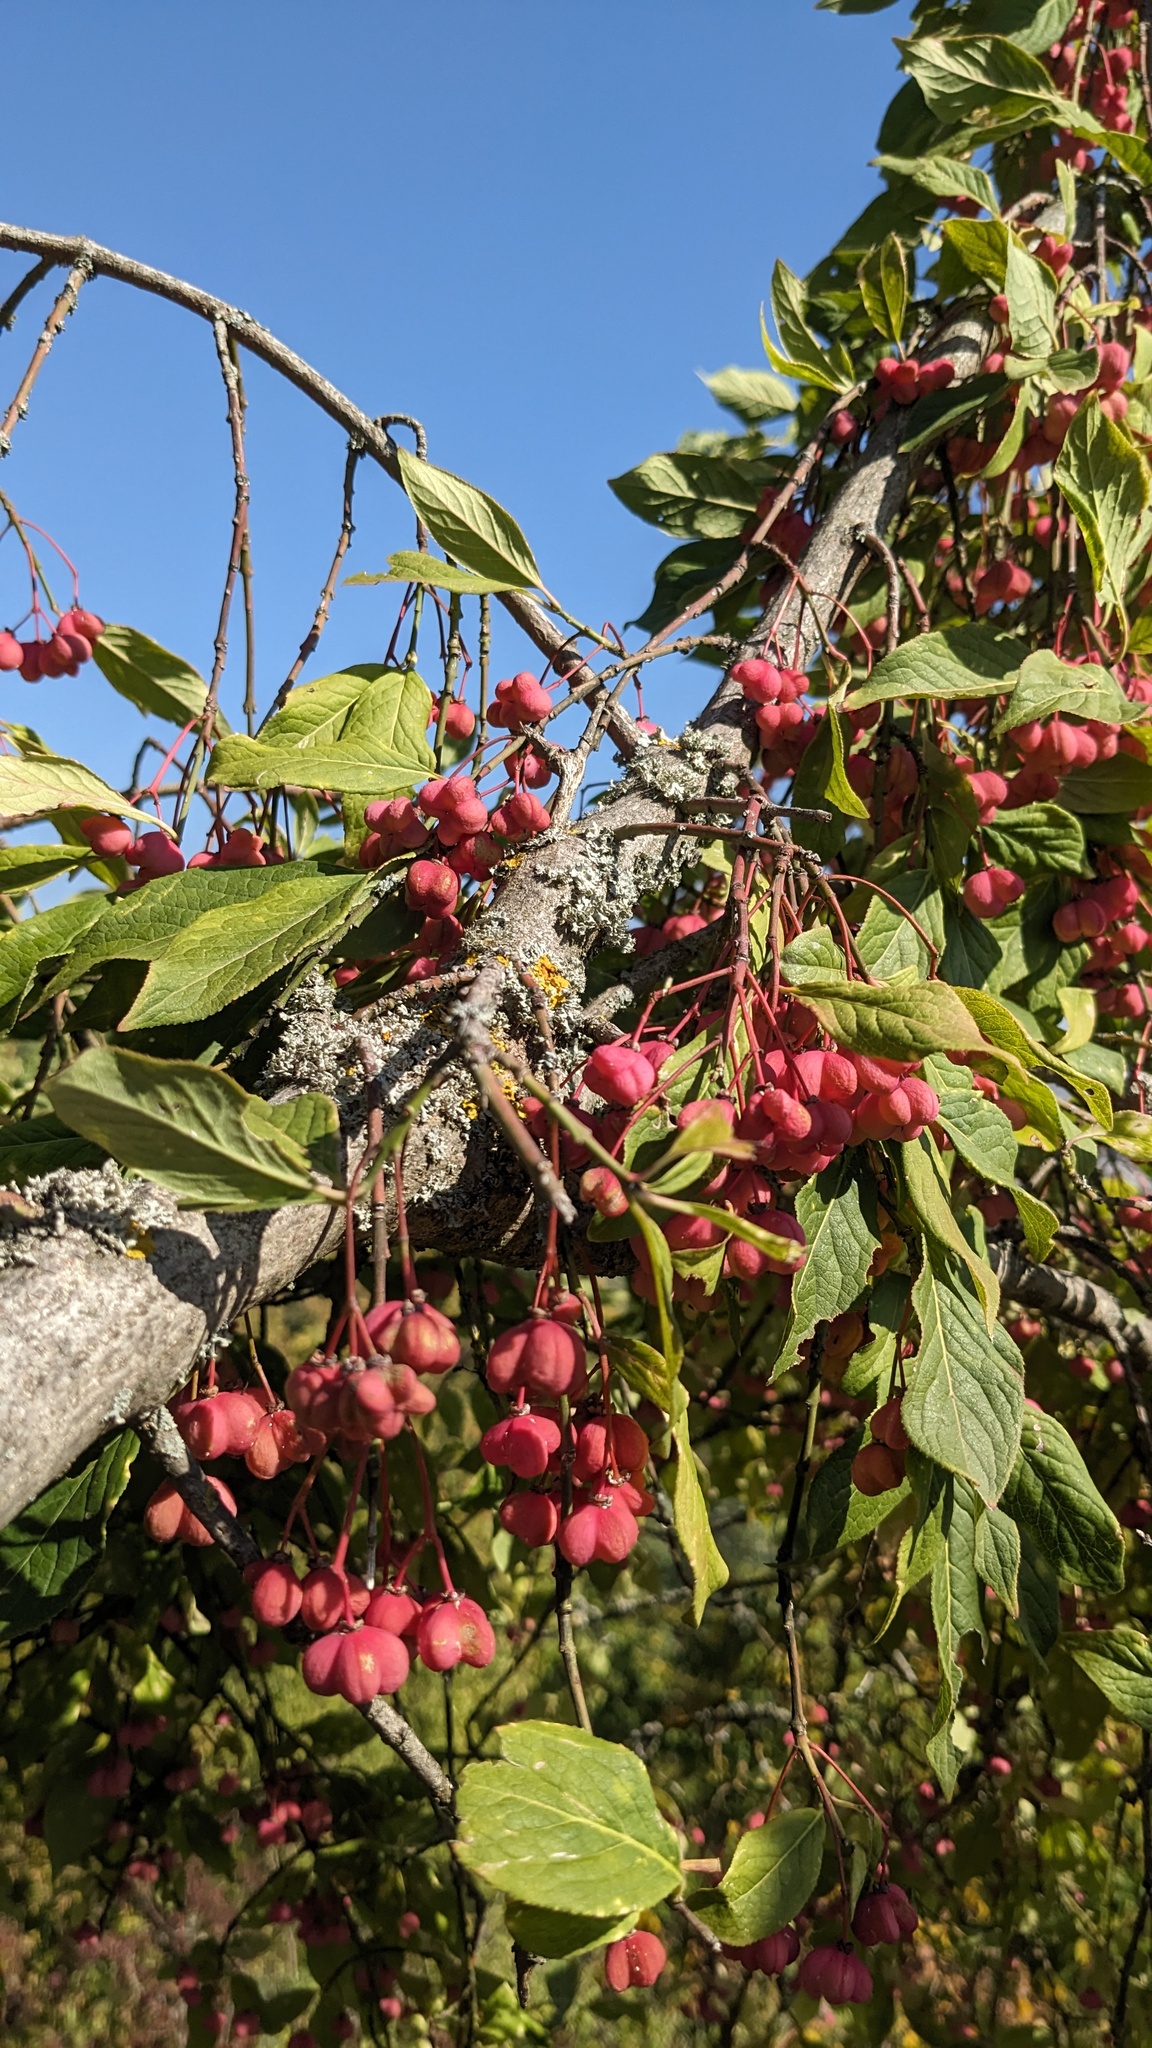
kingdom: Plantae
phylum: Tracheophyta
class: Magnoliopsida
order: Celastrales
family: Celastraceae
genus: Euonymus
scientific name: Euonymus europaeus
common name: Spindle
